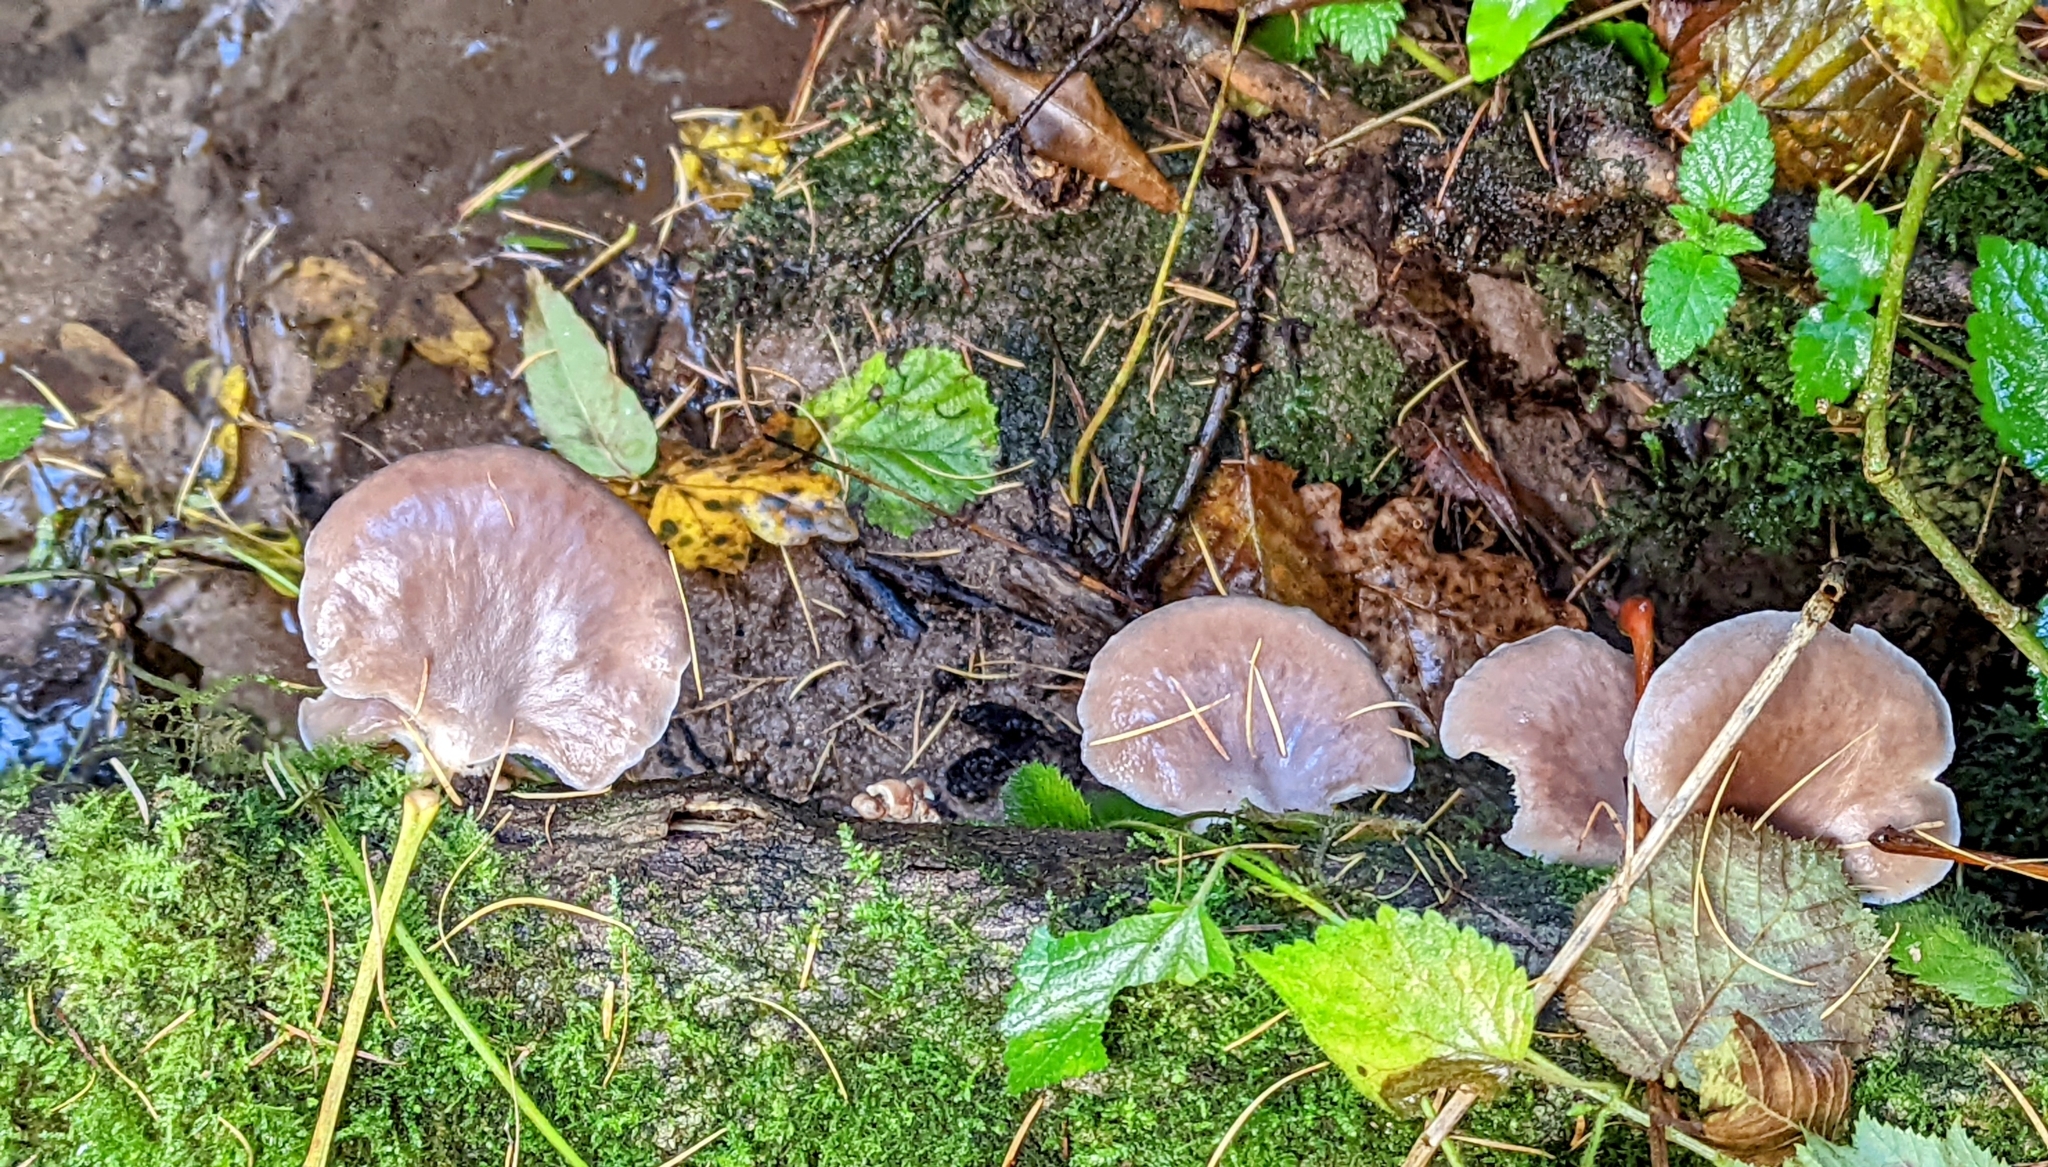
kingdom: Fungi
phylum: Basidiomycota
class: Agaricomycetes
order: Agaricales
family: Pleurotaceae
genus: Pleurotus
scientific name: Pleurotus ostreatus
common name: Oyster mushroom
